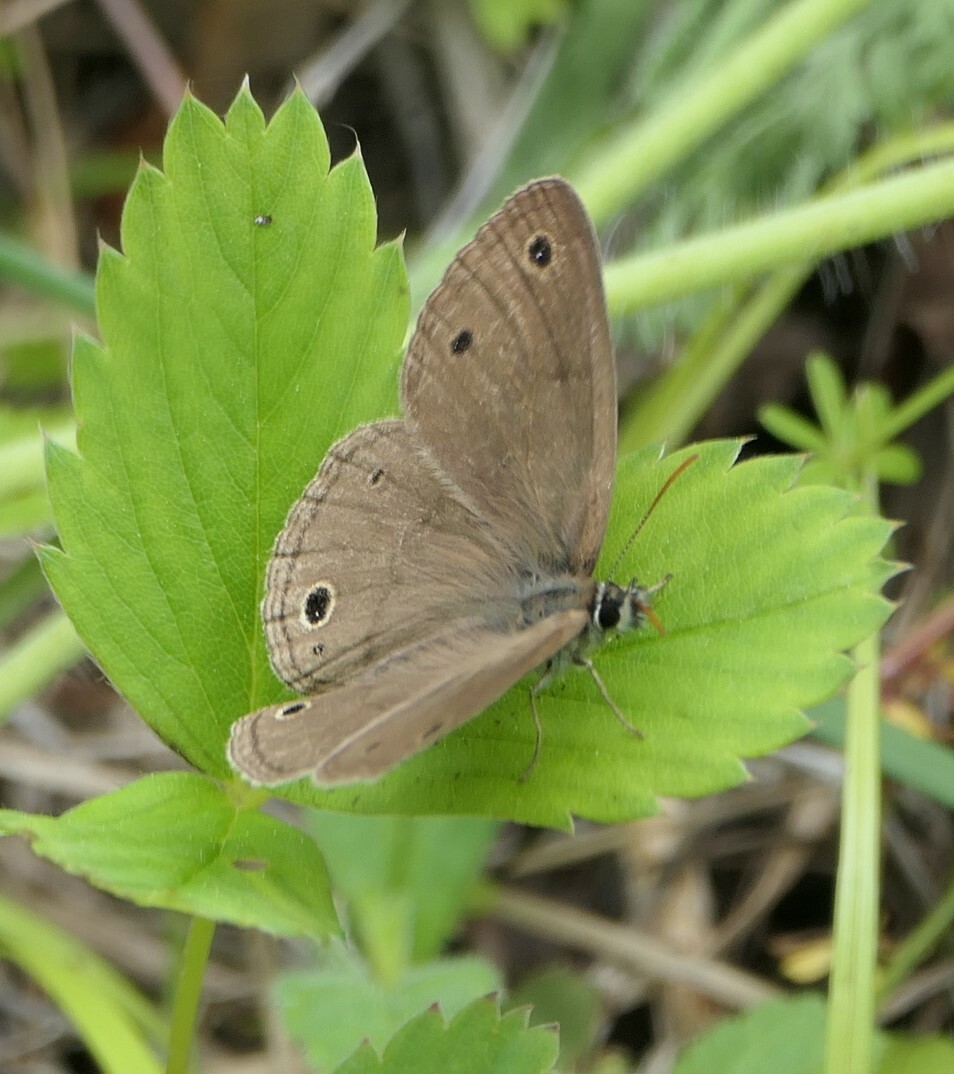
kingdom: Animalia
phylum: Arthropoda
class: Insecta
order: Lepidoptera
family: Nymphalidae
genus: Euptychia
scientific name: Euptychia cymela
